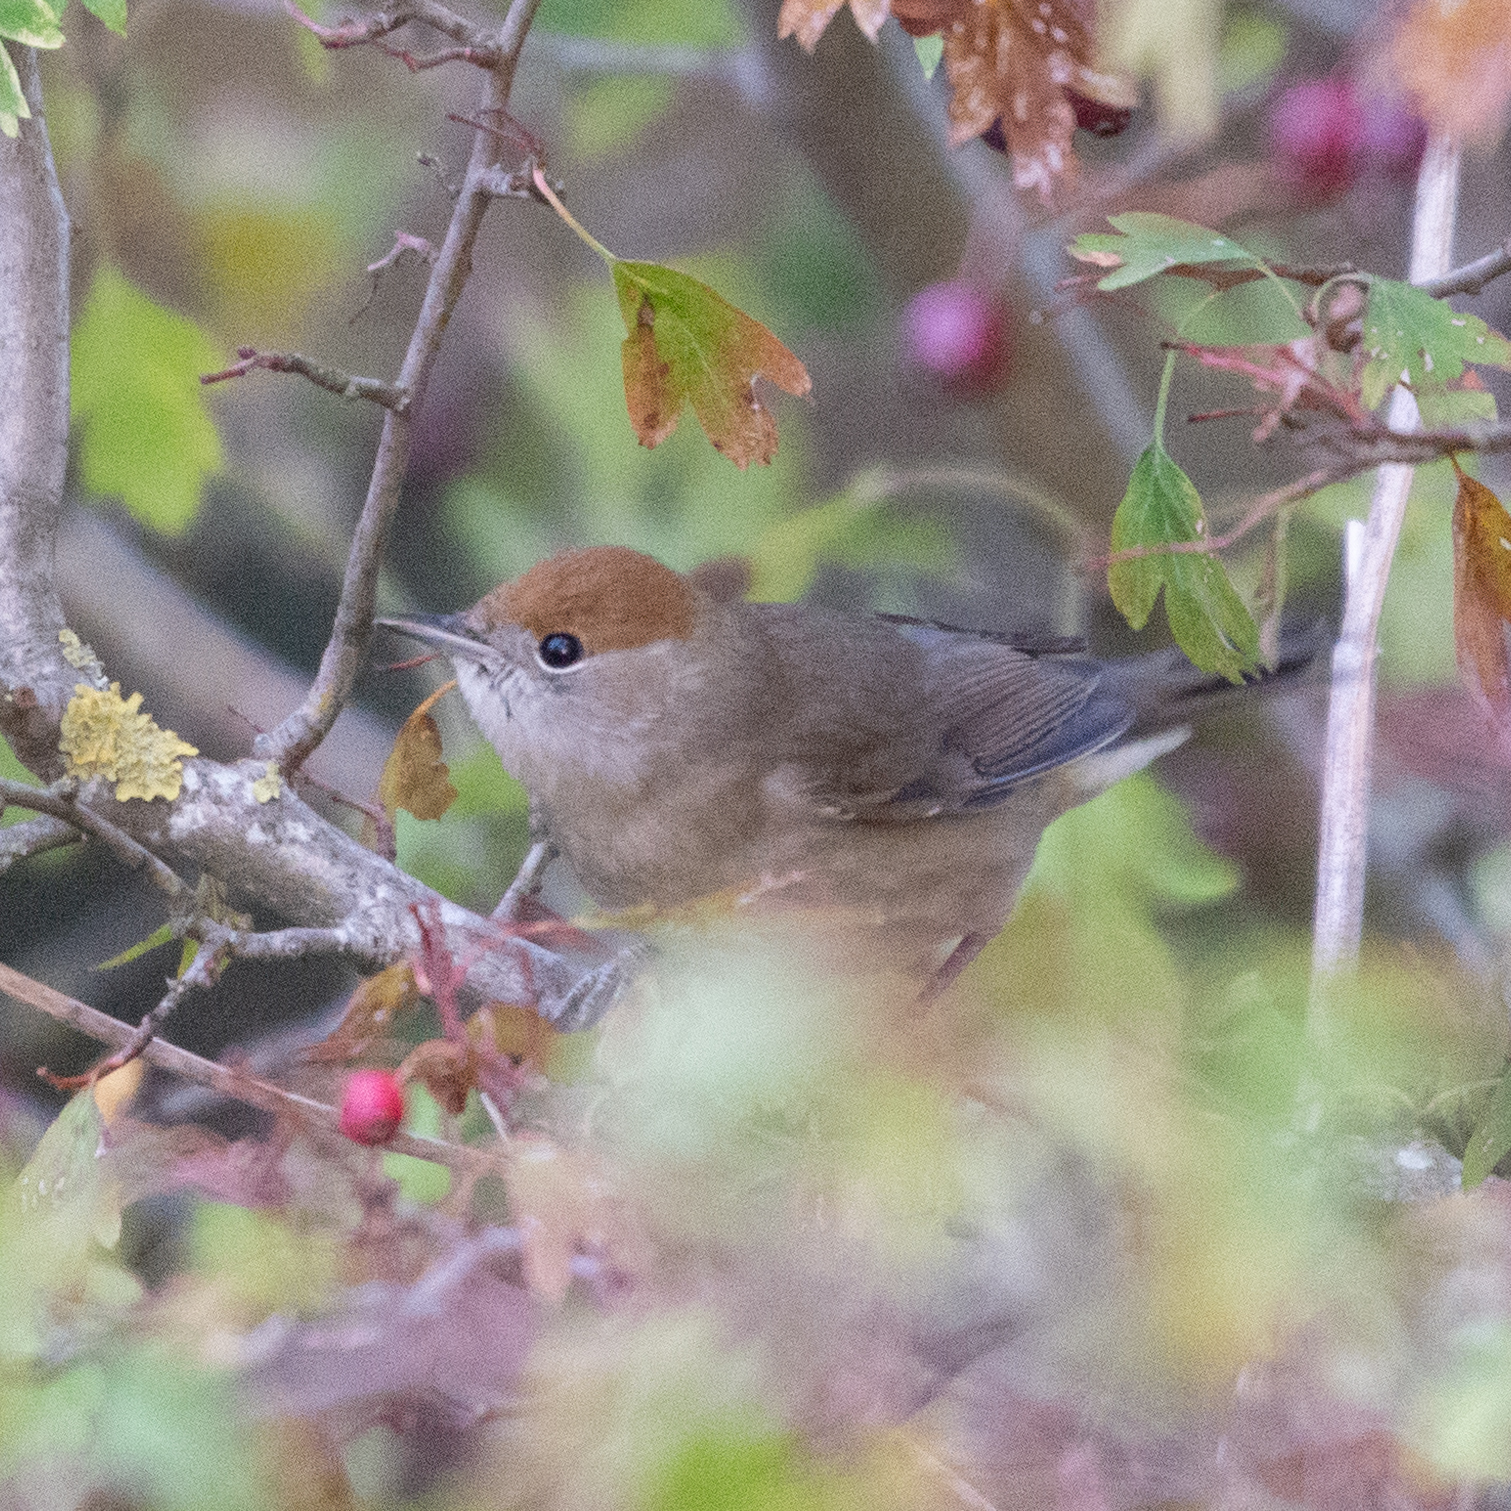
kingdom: Animalia
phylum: Chordata
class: Aves
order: Passeriformes
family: Sylviidae
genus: Sylvia
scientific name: Sylvia atricapilla
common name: Eurasian blackcap
